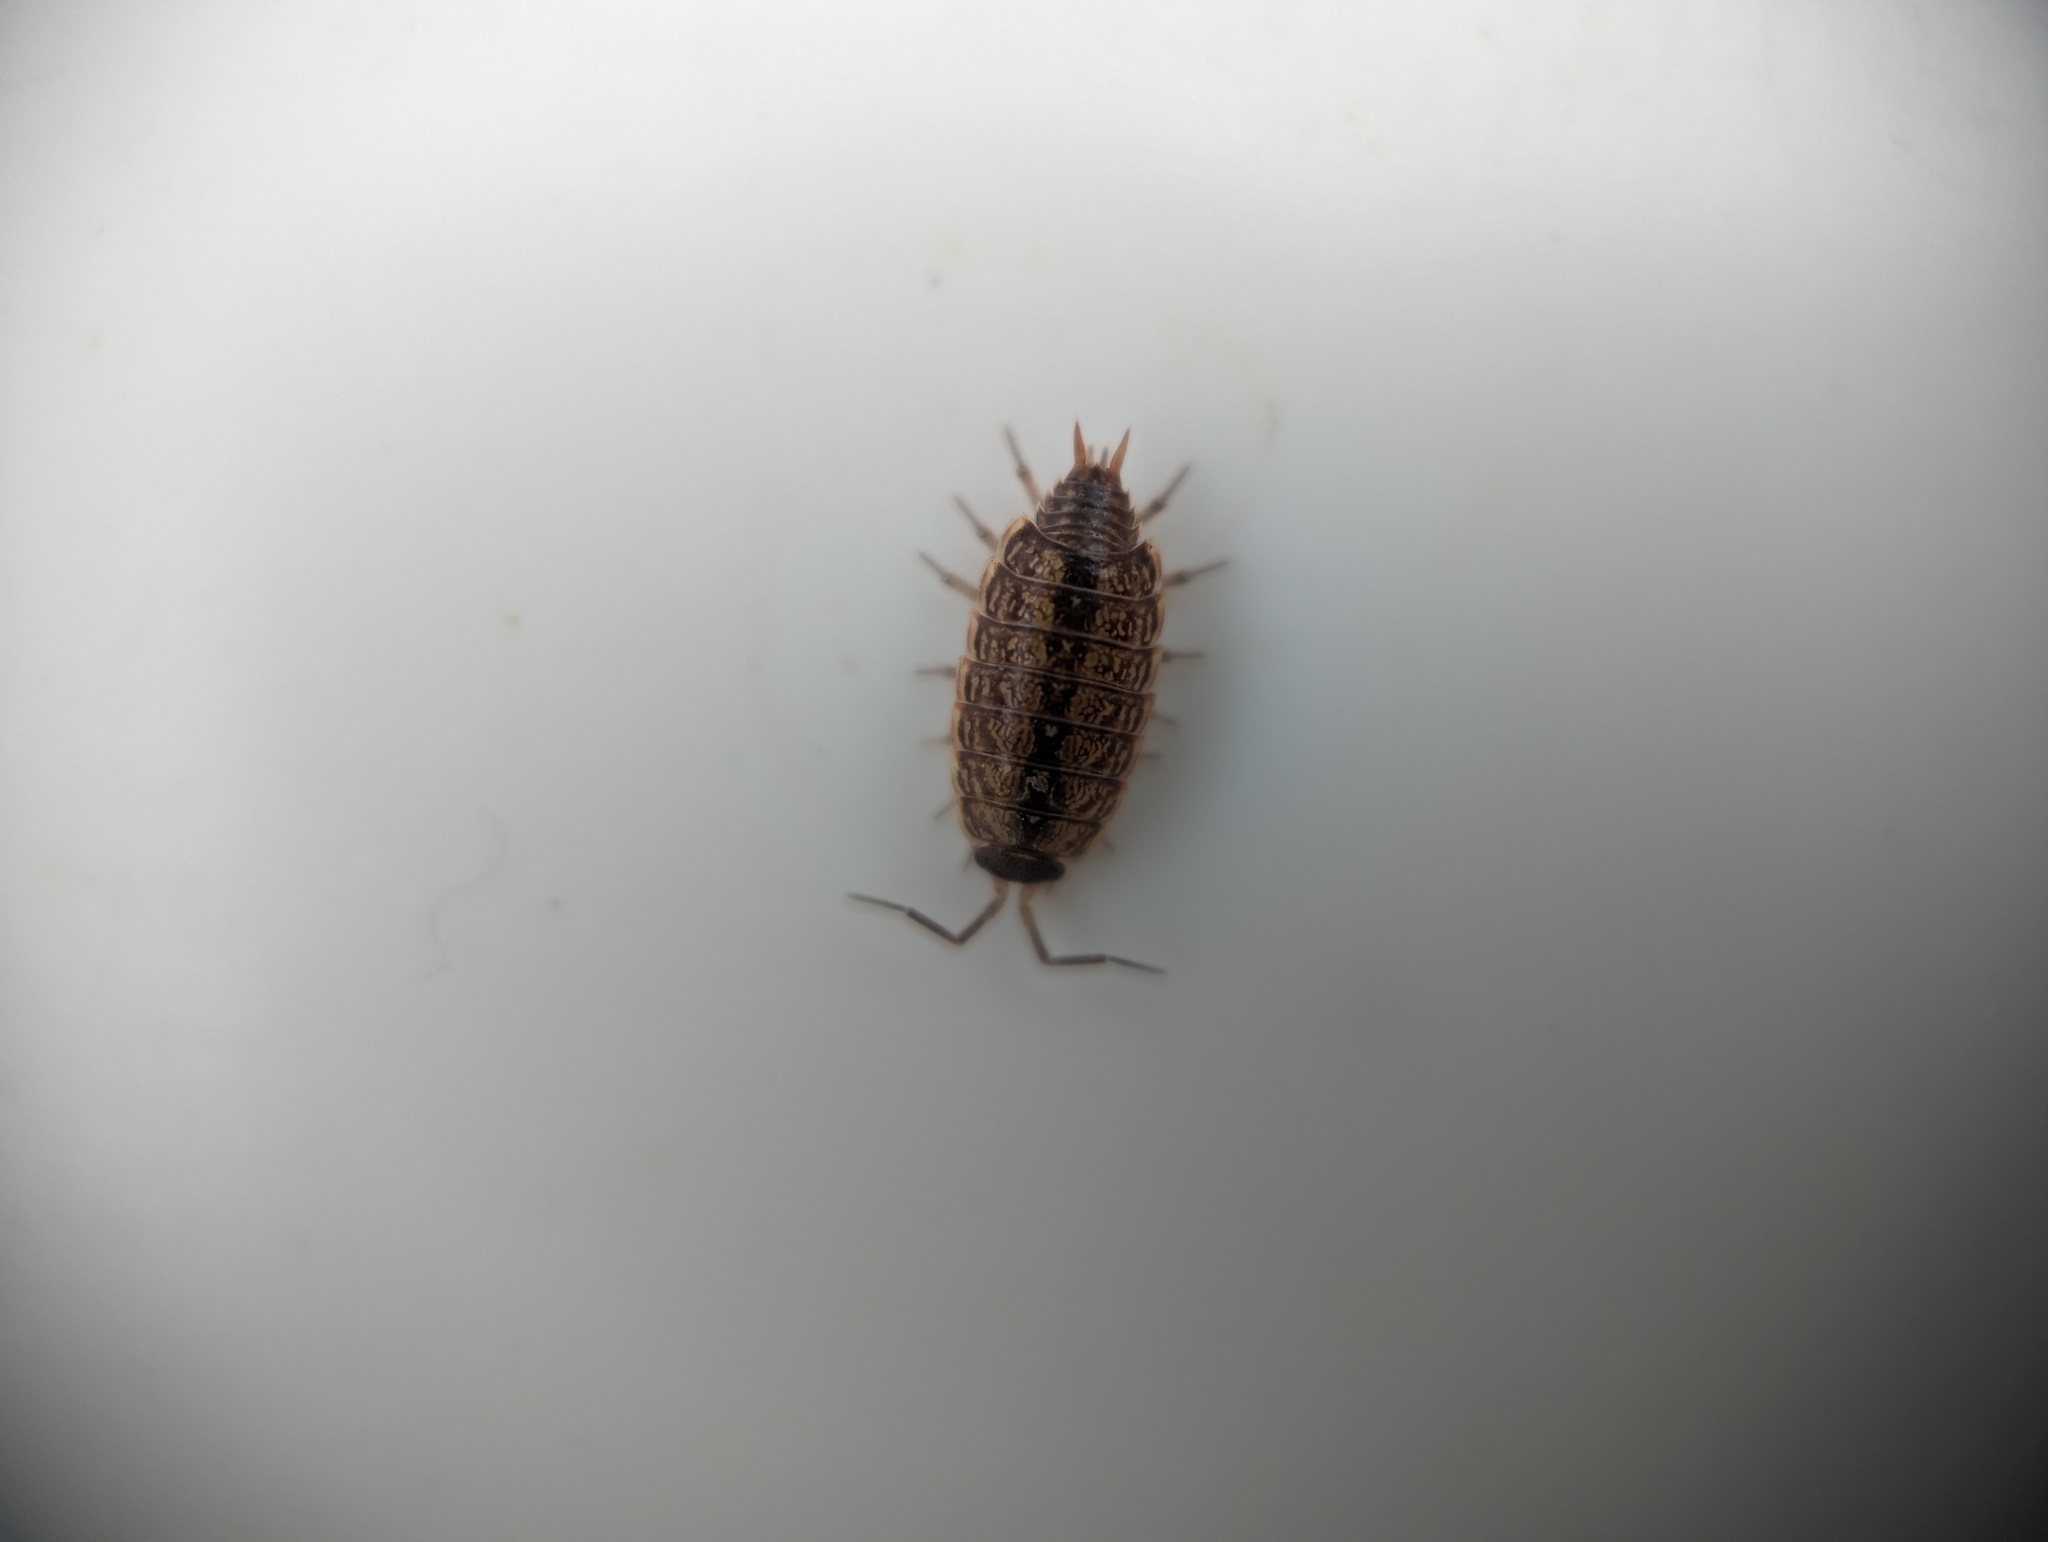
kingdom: Animalia
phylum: Arthropoda
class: Malacostraca
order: Isopoda
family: Philosciidae
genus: Philoscia
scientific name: Philoscia muscorum
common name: Common striped woodlouse
